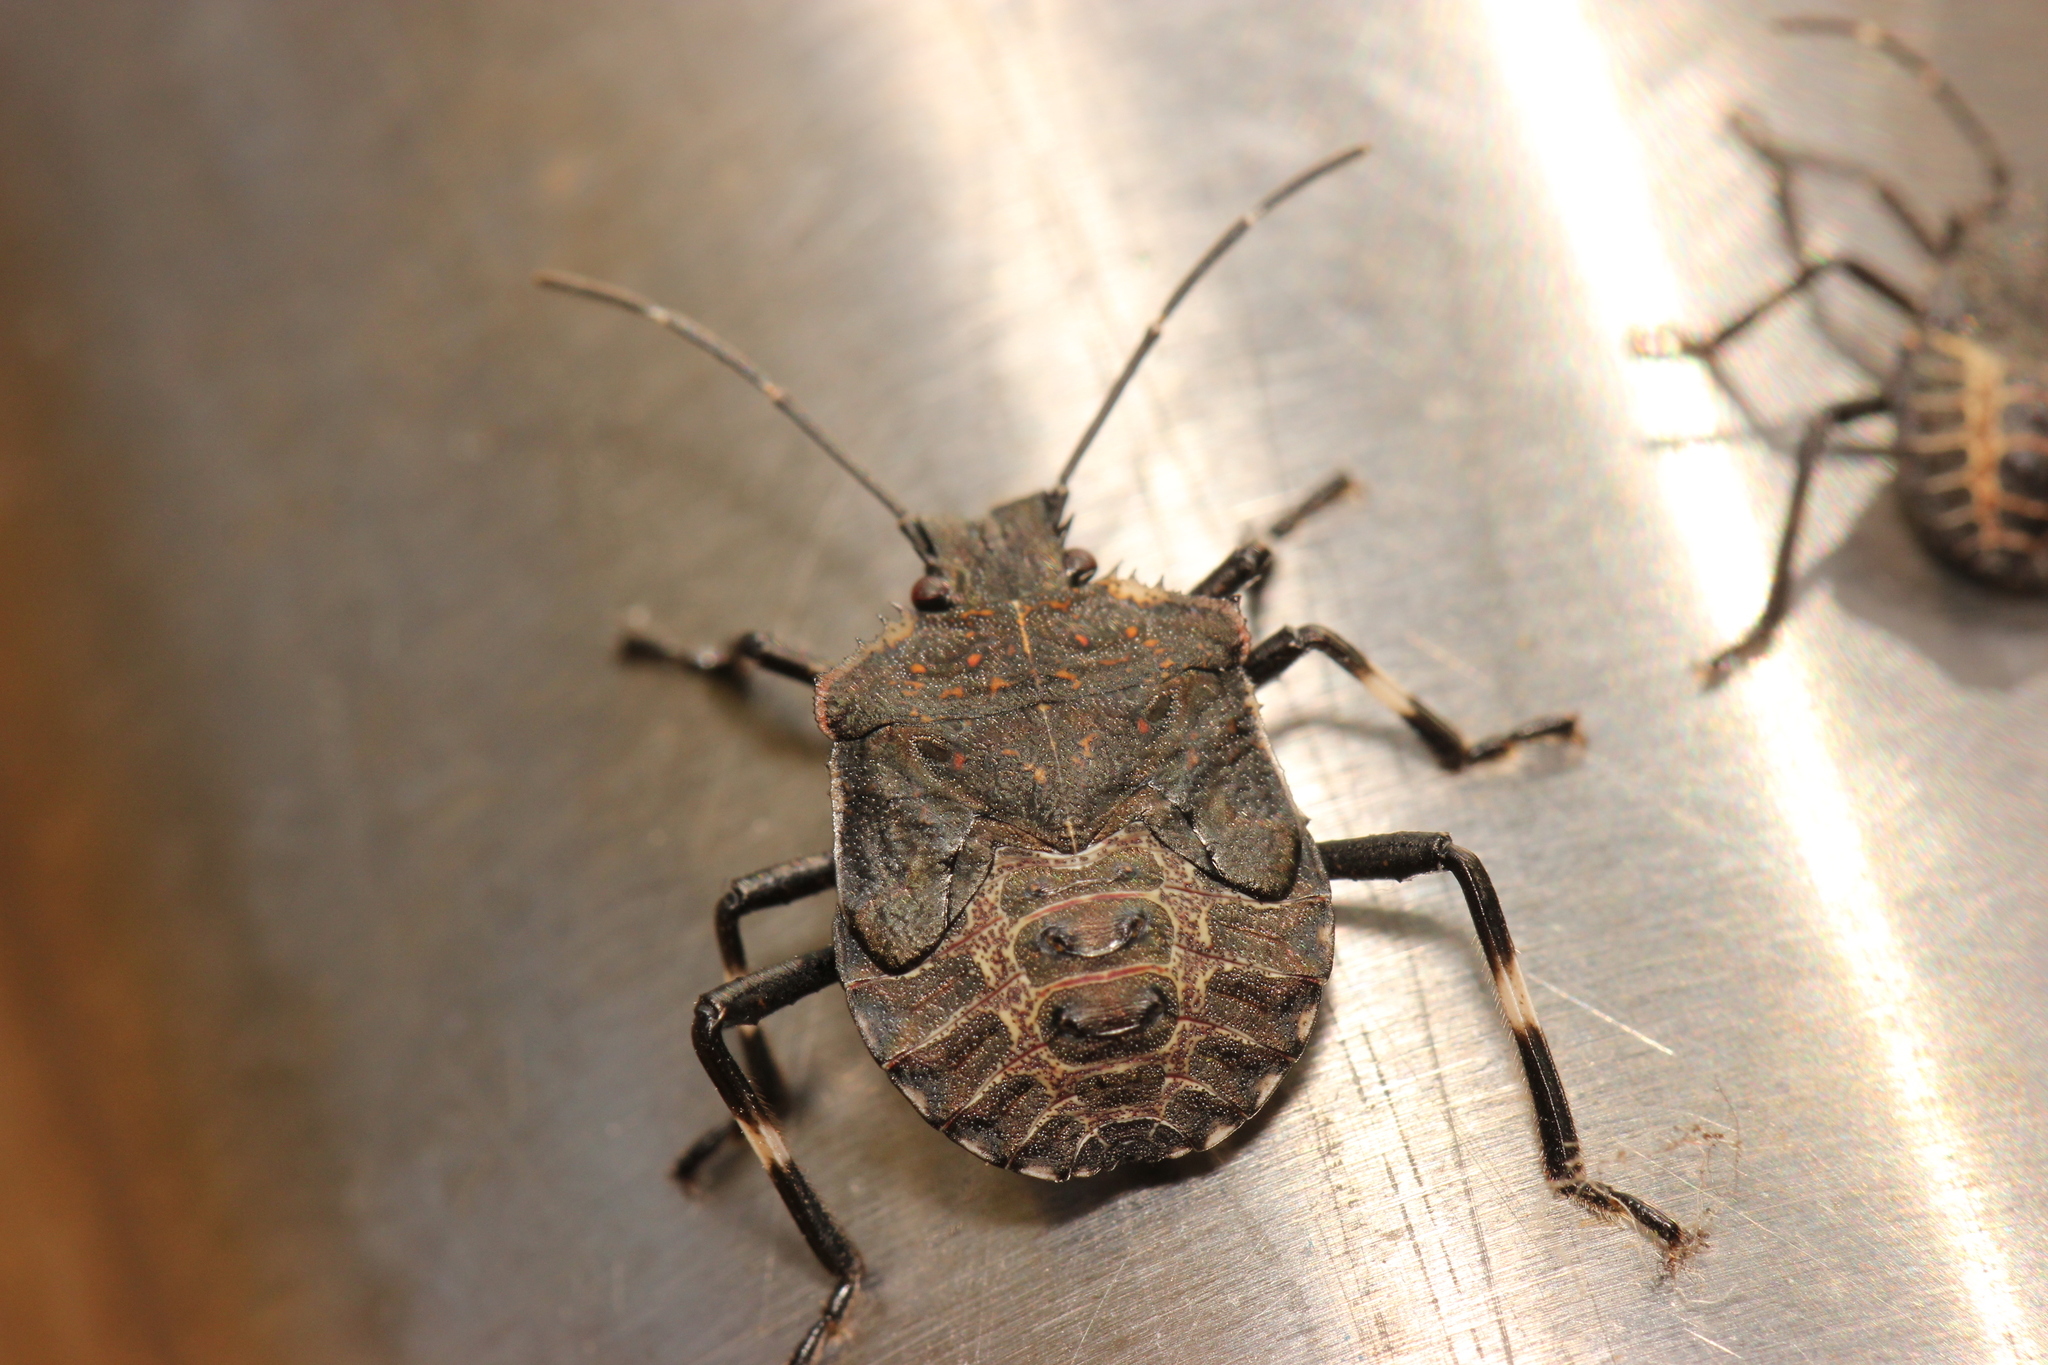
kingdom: Animalia
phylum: Arthropoda
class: Insecta
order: Hemiptera
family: Pentatomidae
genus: Halyomorpha
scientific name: Halyomorpha halys
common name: Brown marmorated stink bug
